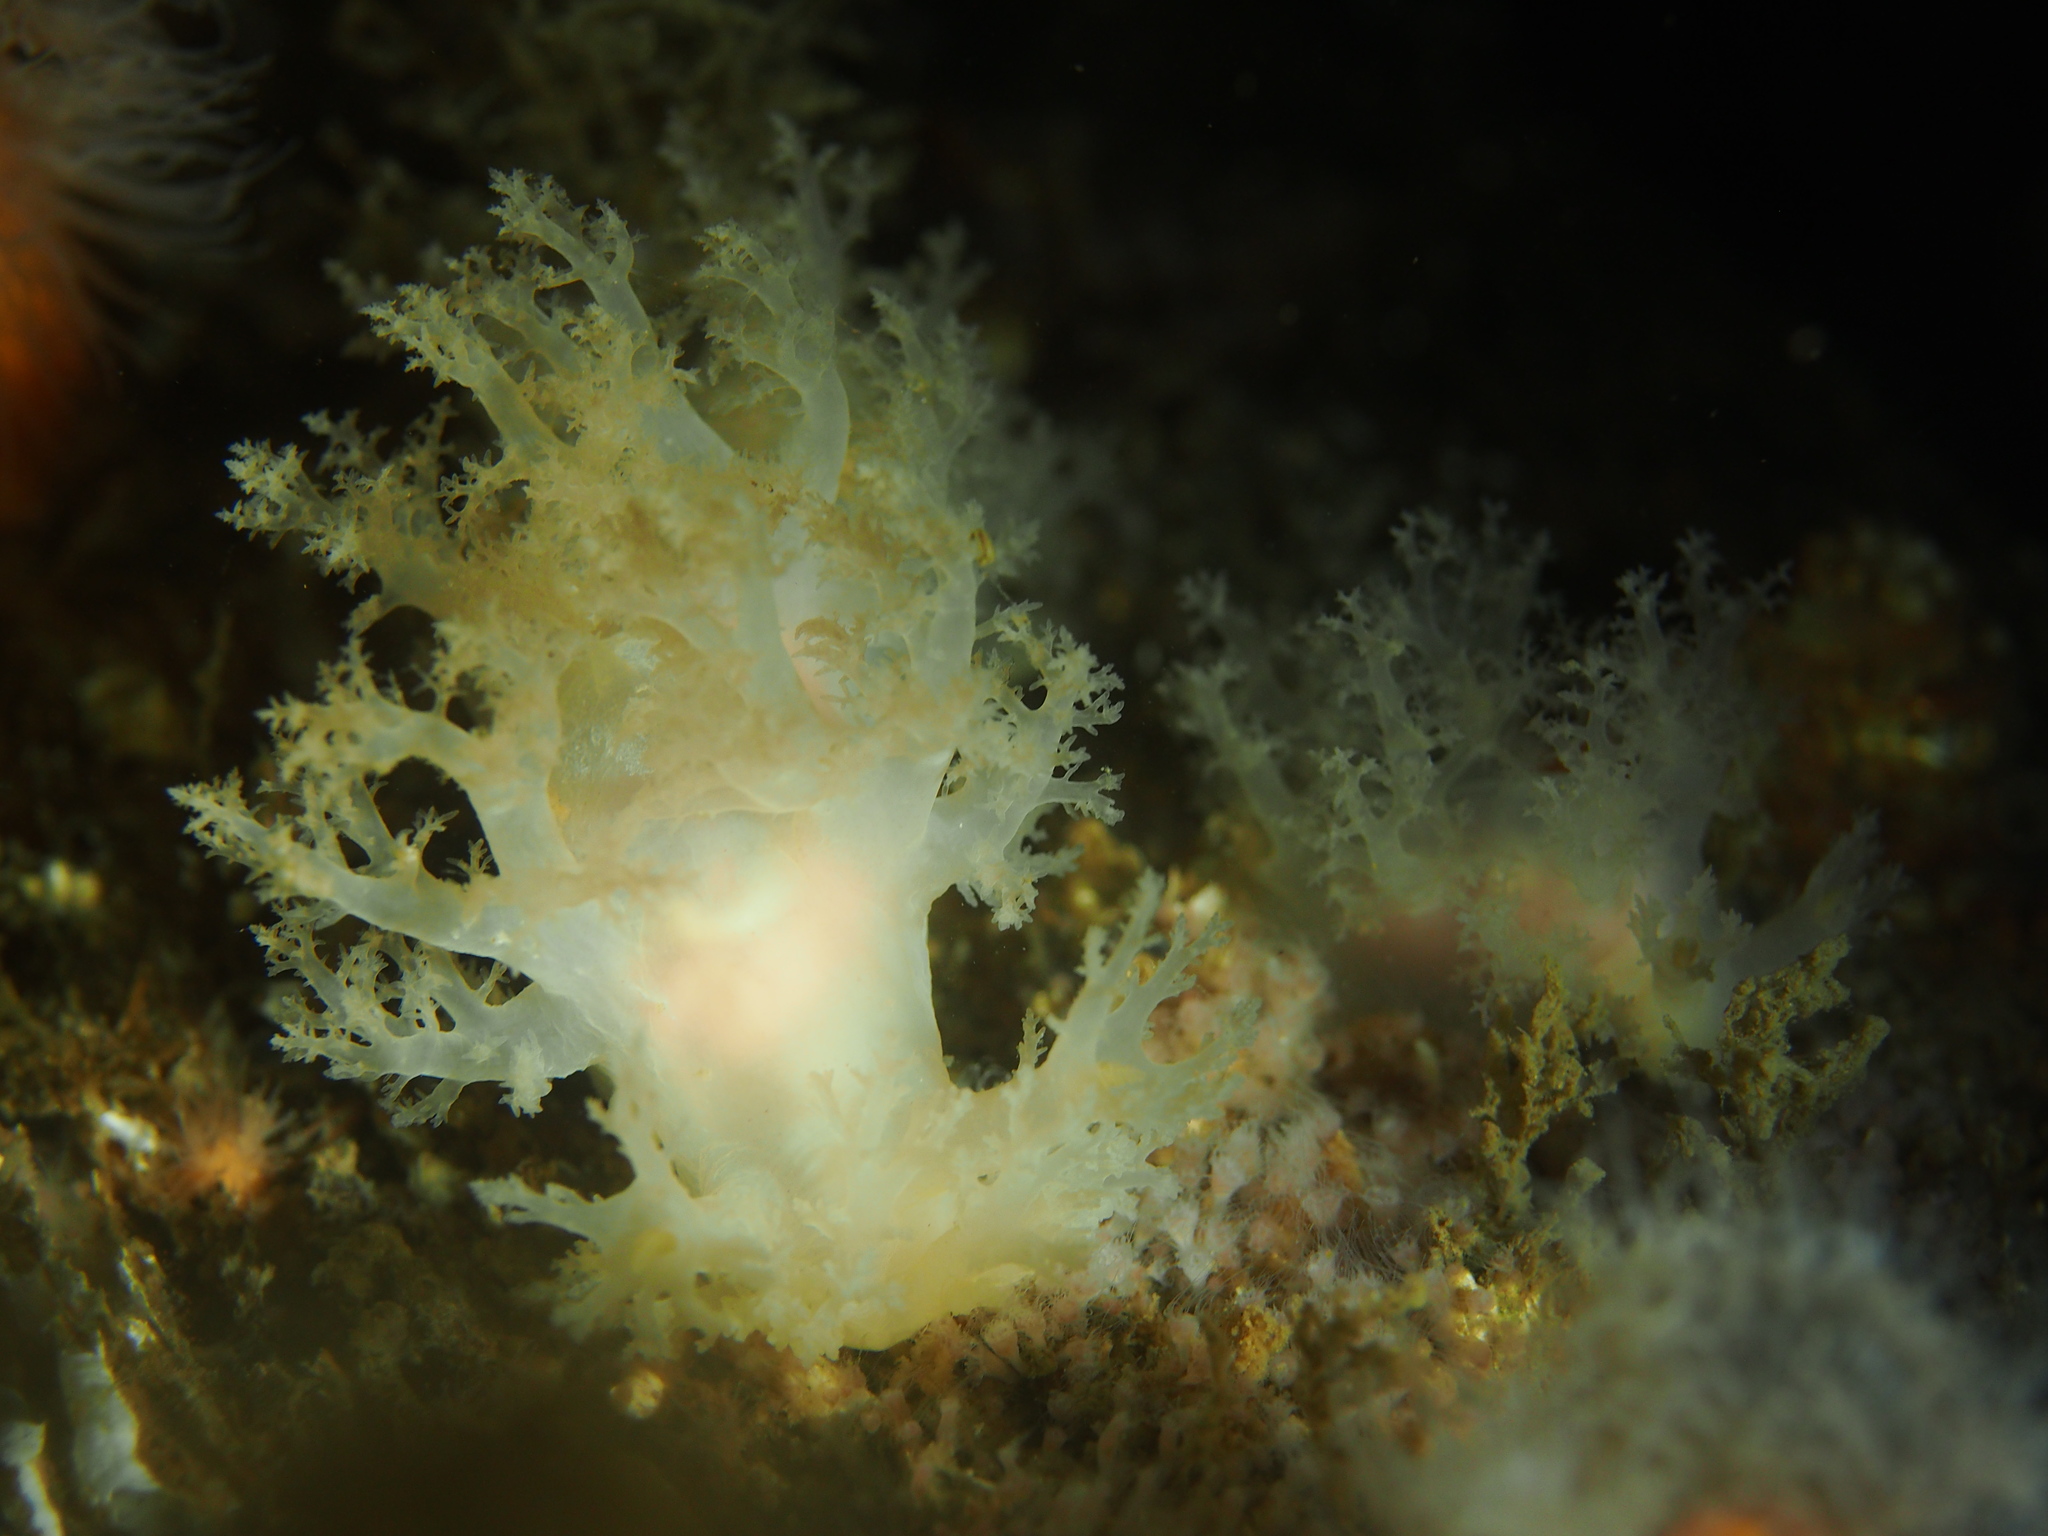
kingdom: Animalia
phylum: Mollusca
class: Gastropoda
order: Nudibranchia
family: Dendronotidae
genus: Dendronotus
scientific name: Dendronotus lacteus
